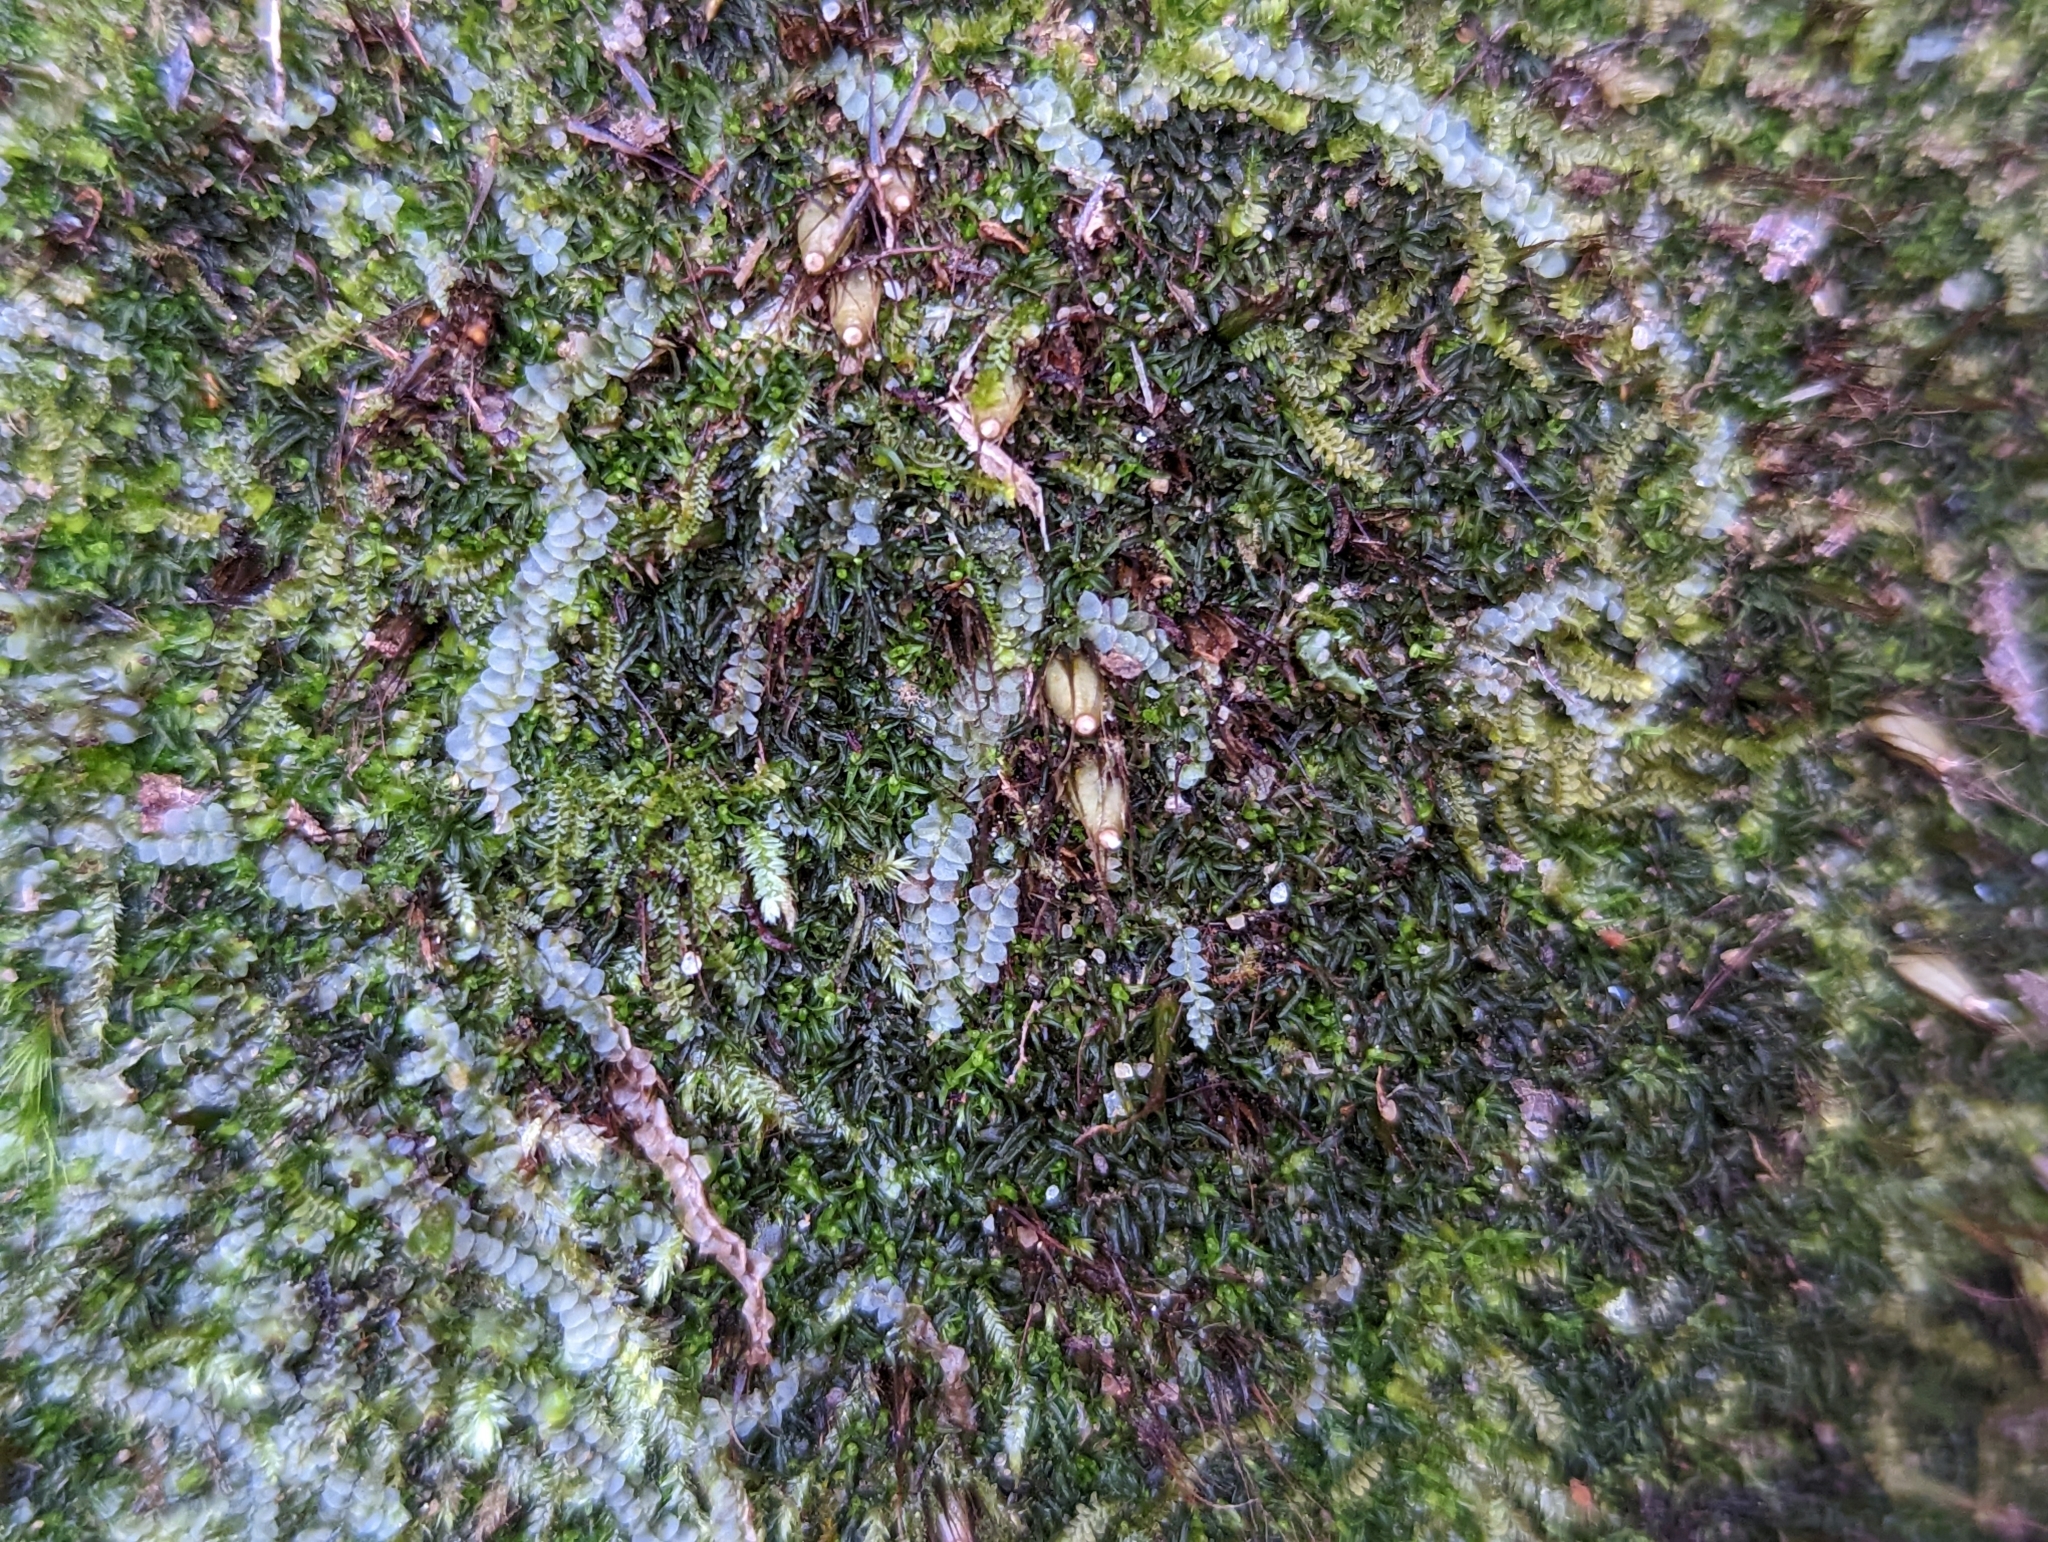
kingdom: Plantae
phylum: Bryophyta
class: Bryopsida
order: Diphysciales
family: Diphysciaceae
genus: Diphyscium
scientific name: Diphyscium foliosum
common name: Nut moss
